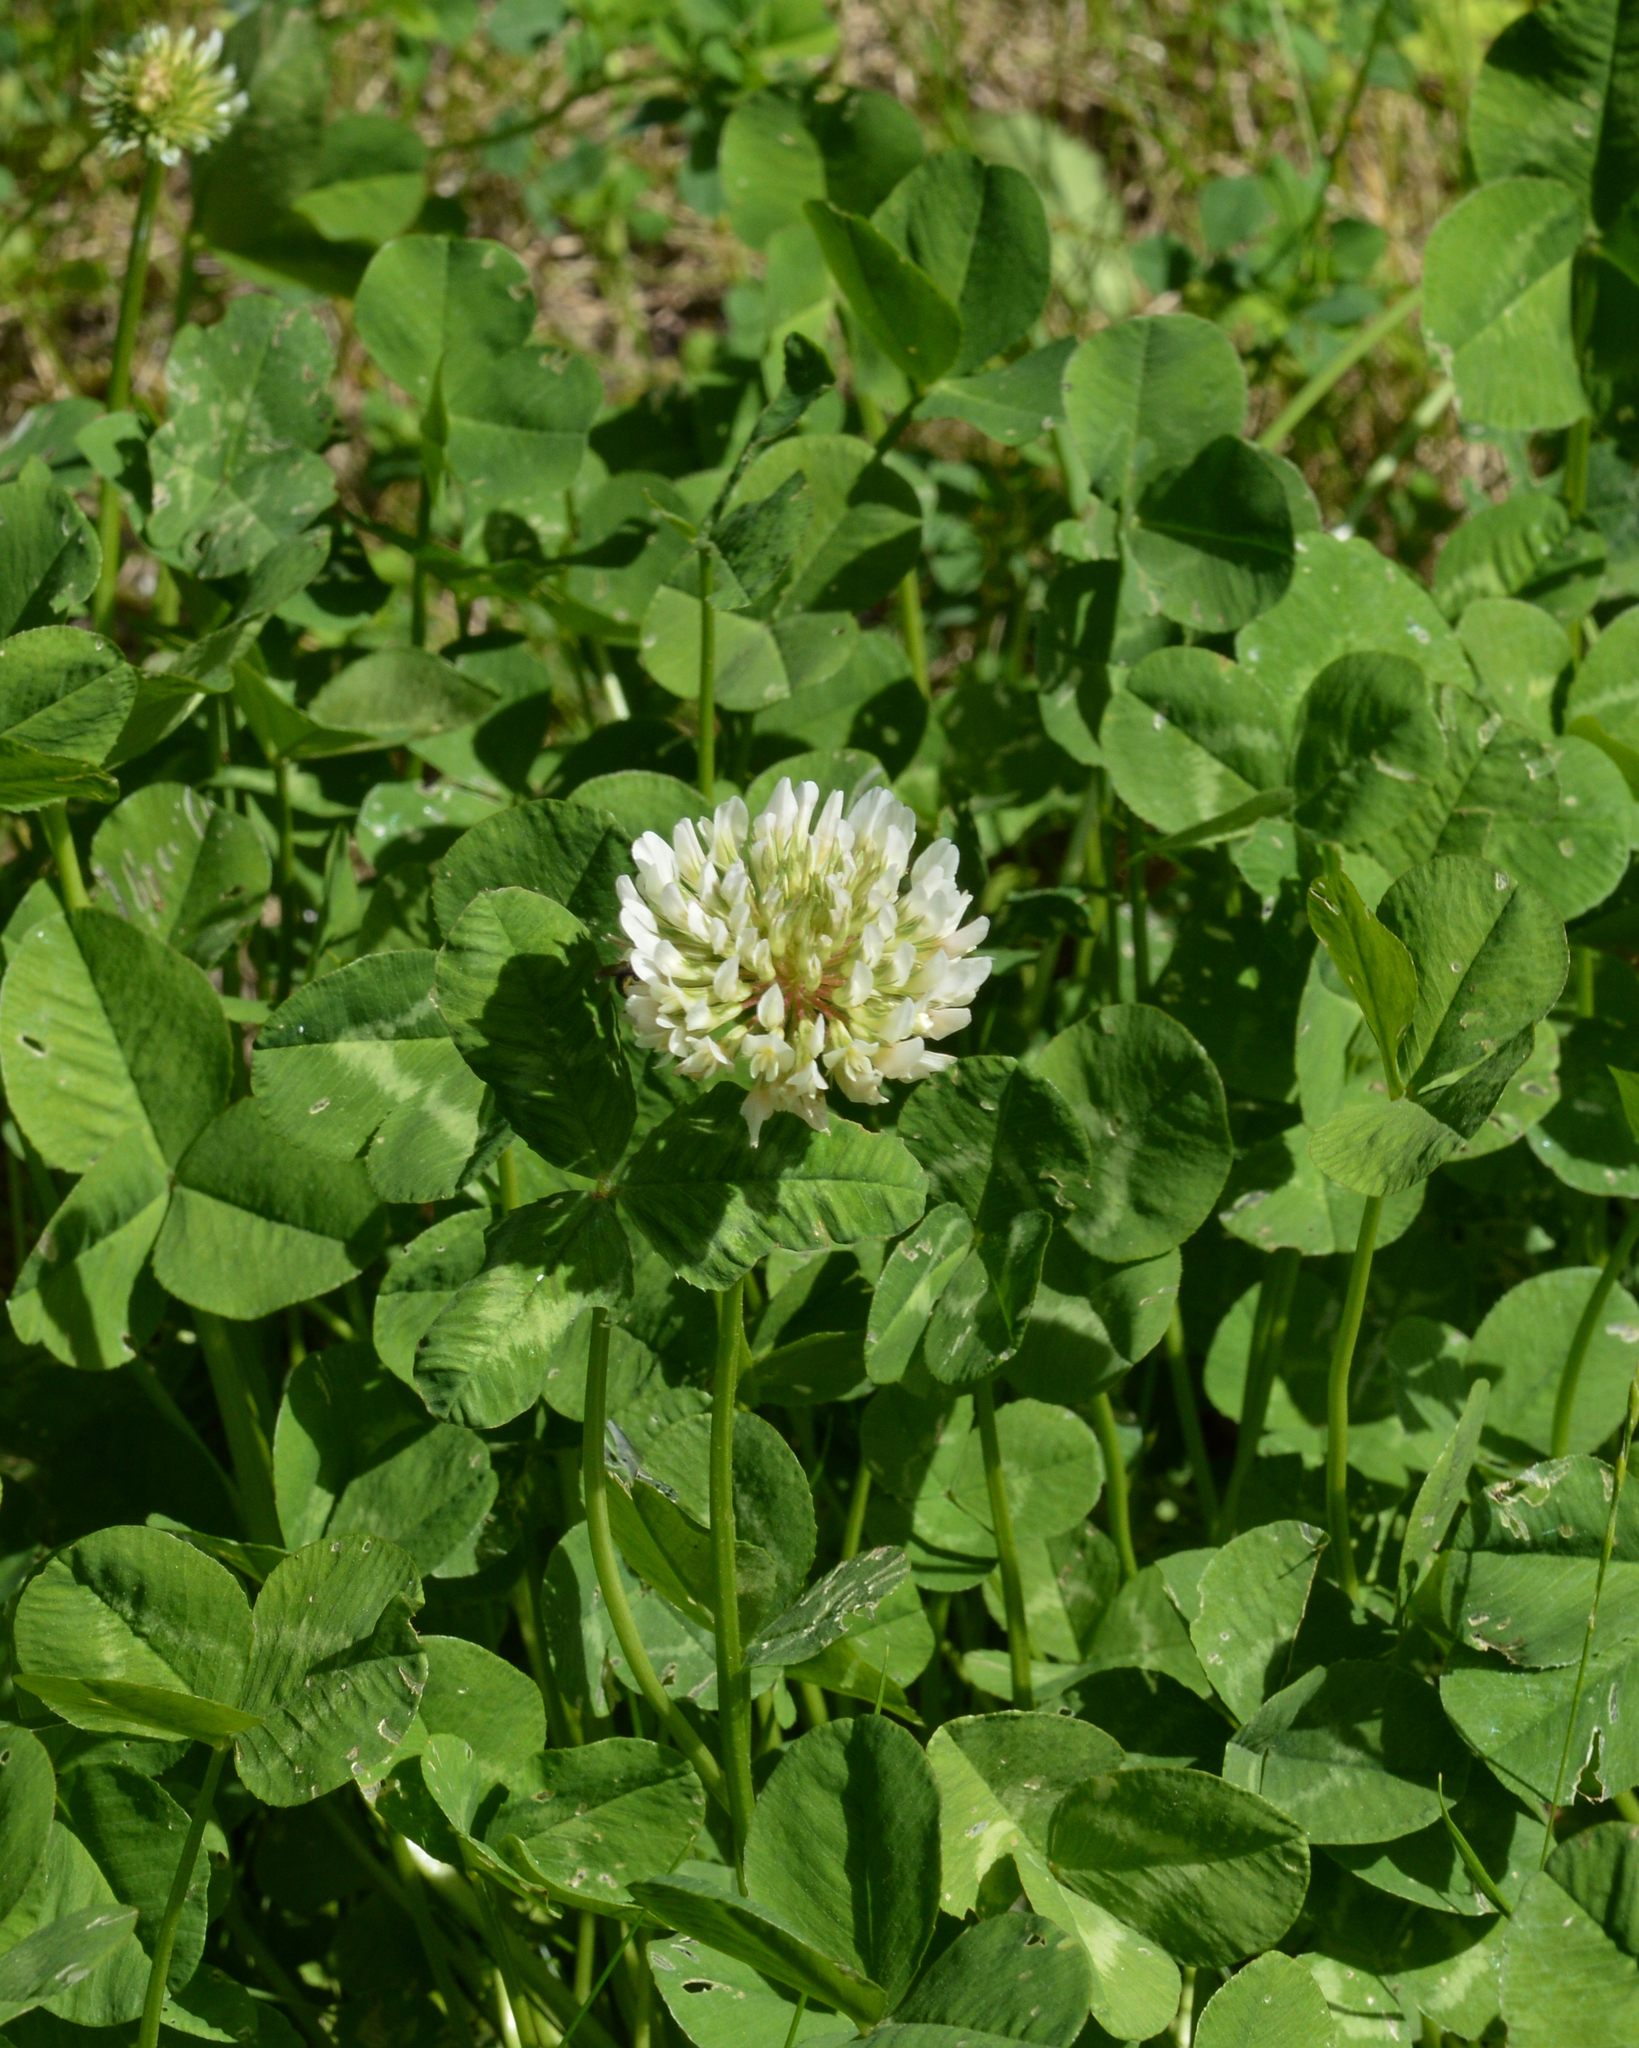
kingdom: Plantae
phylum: Tracheophyta
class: Magnoliopsida
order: Fabales
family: Fabaceae
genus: Trifolium
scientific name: Trifolium repens
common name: White clover
